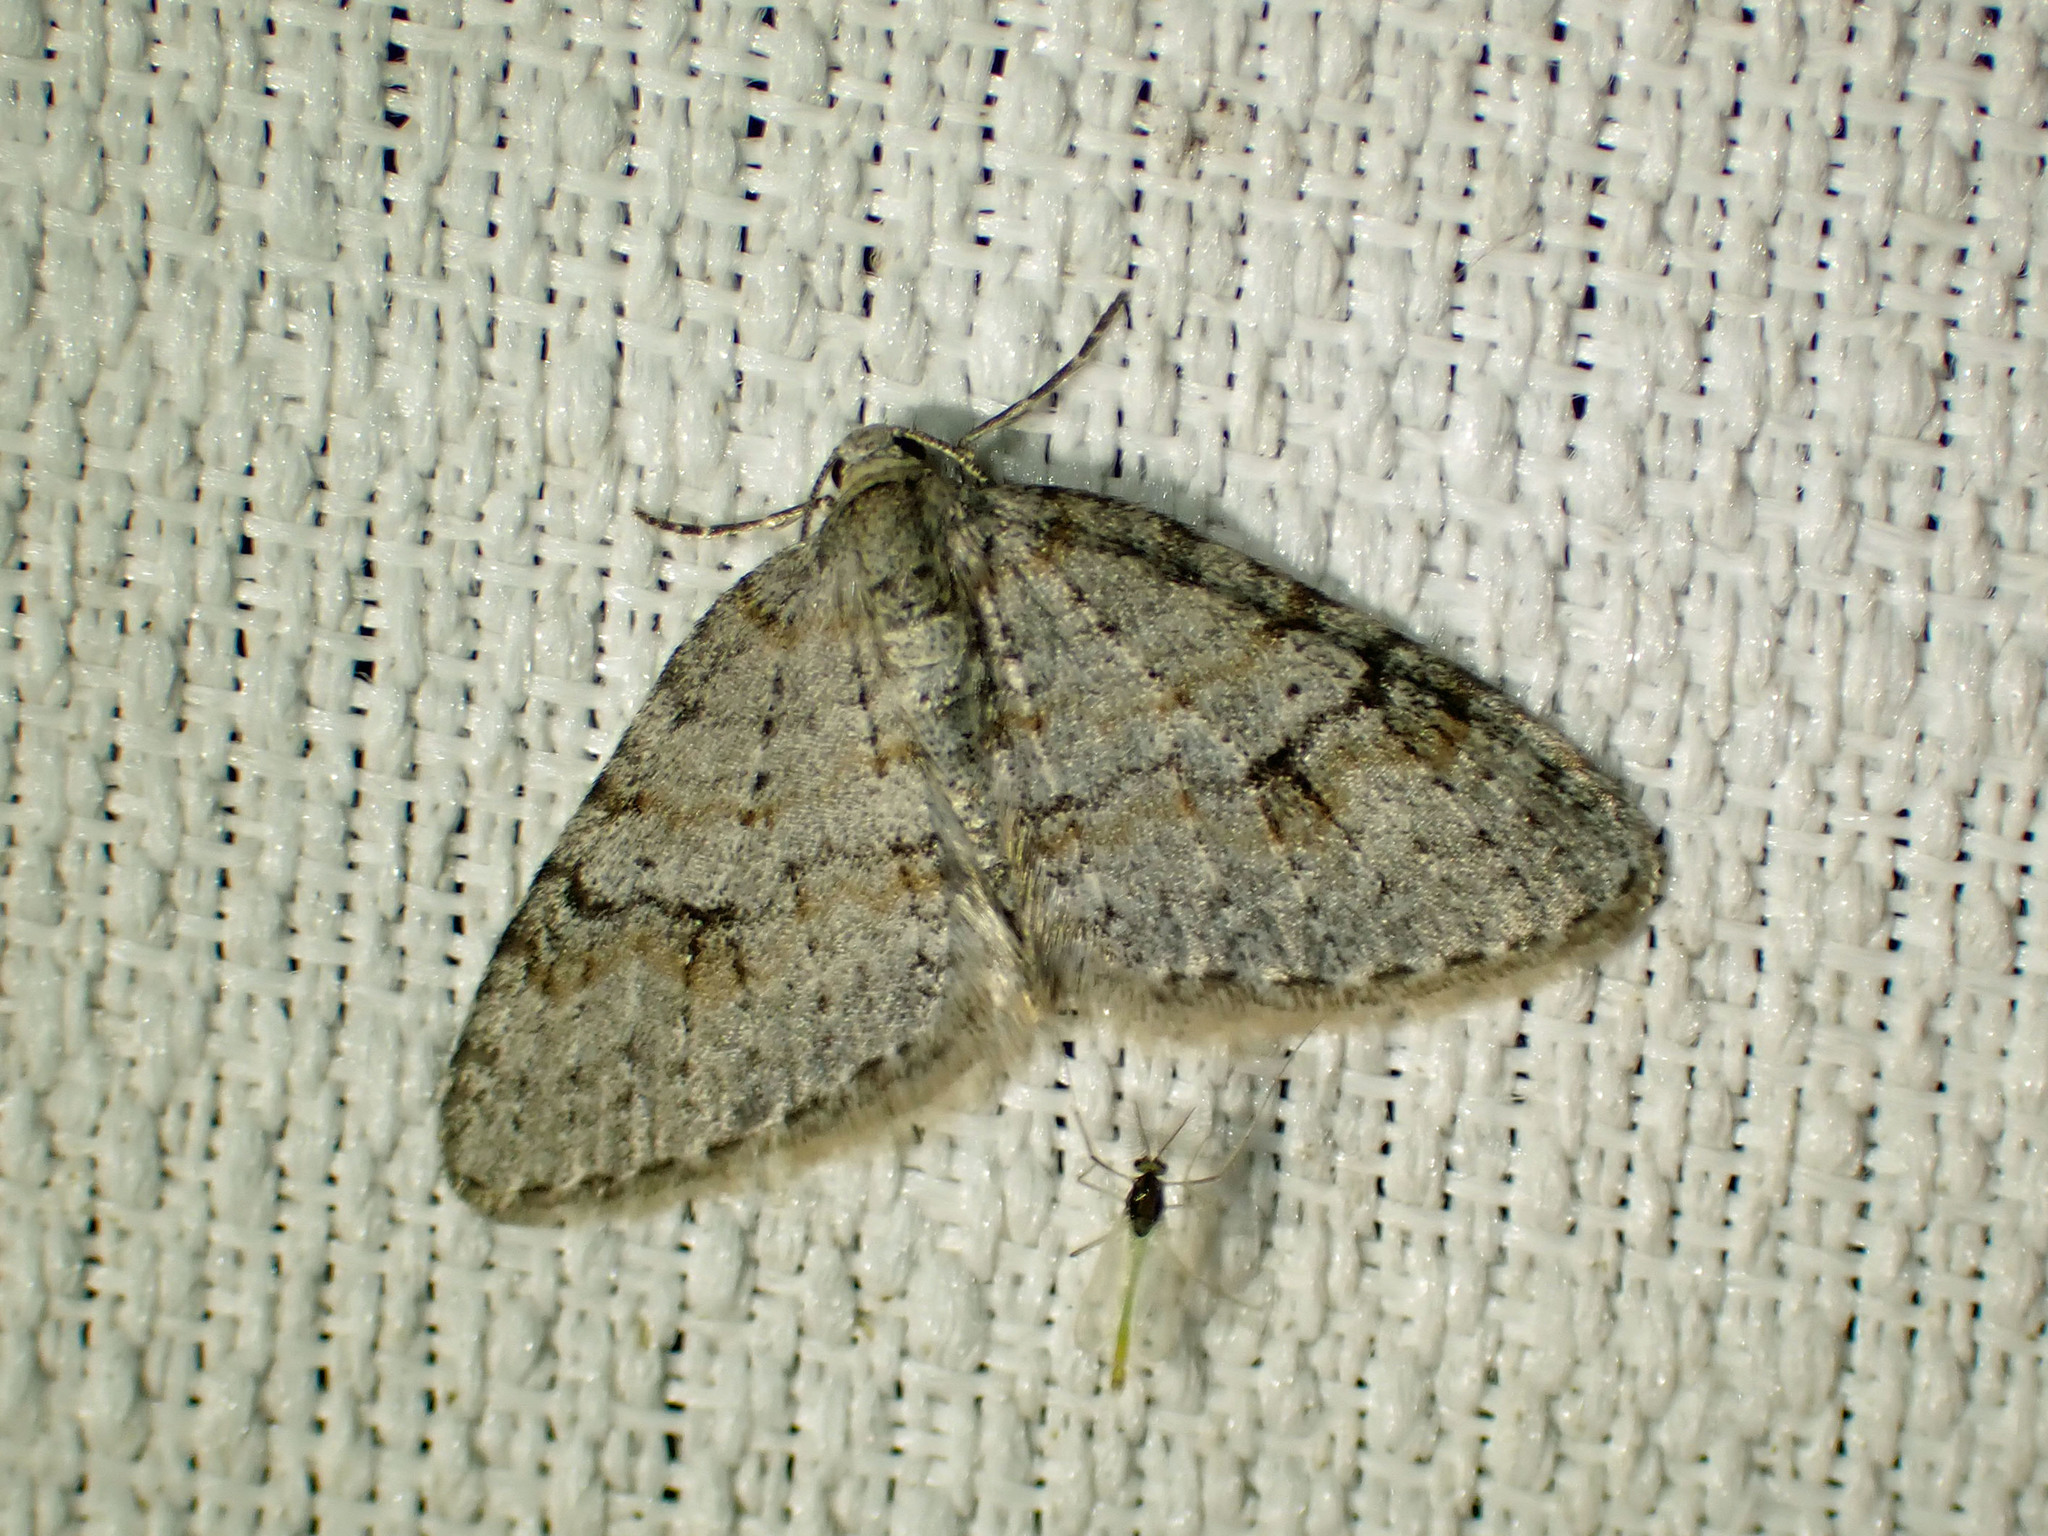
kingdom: Animalia
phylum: Arthropoda
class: Insecta
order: Lepidoptera
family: Geometridae
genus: Venusia
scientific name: Venusia comptaria
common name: Brown-shaded carpet
